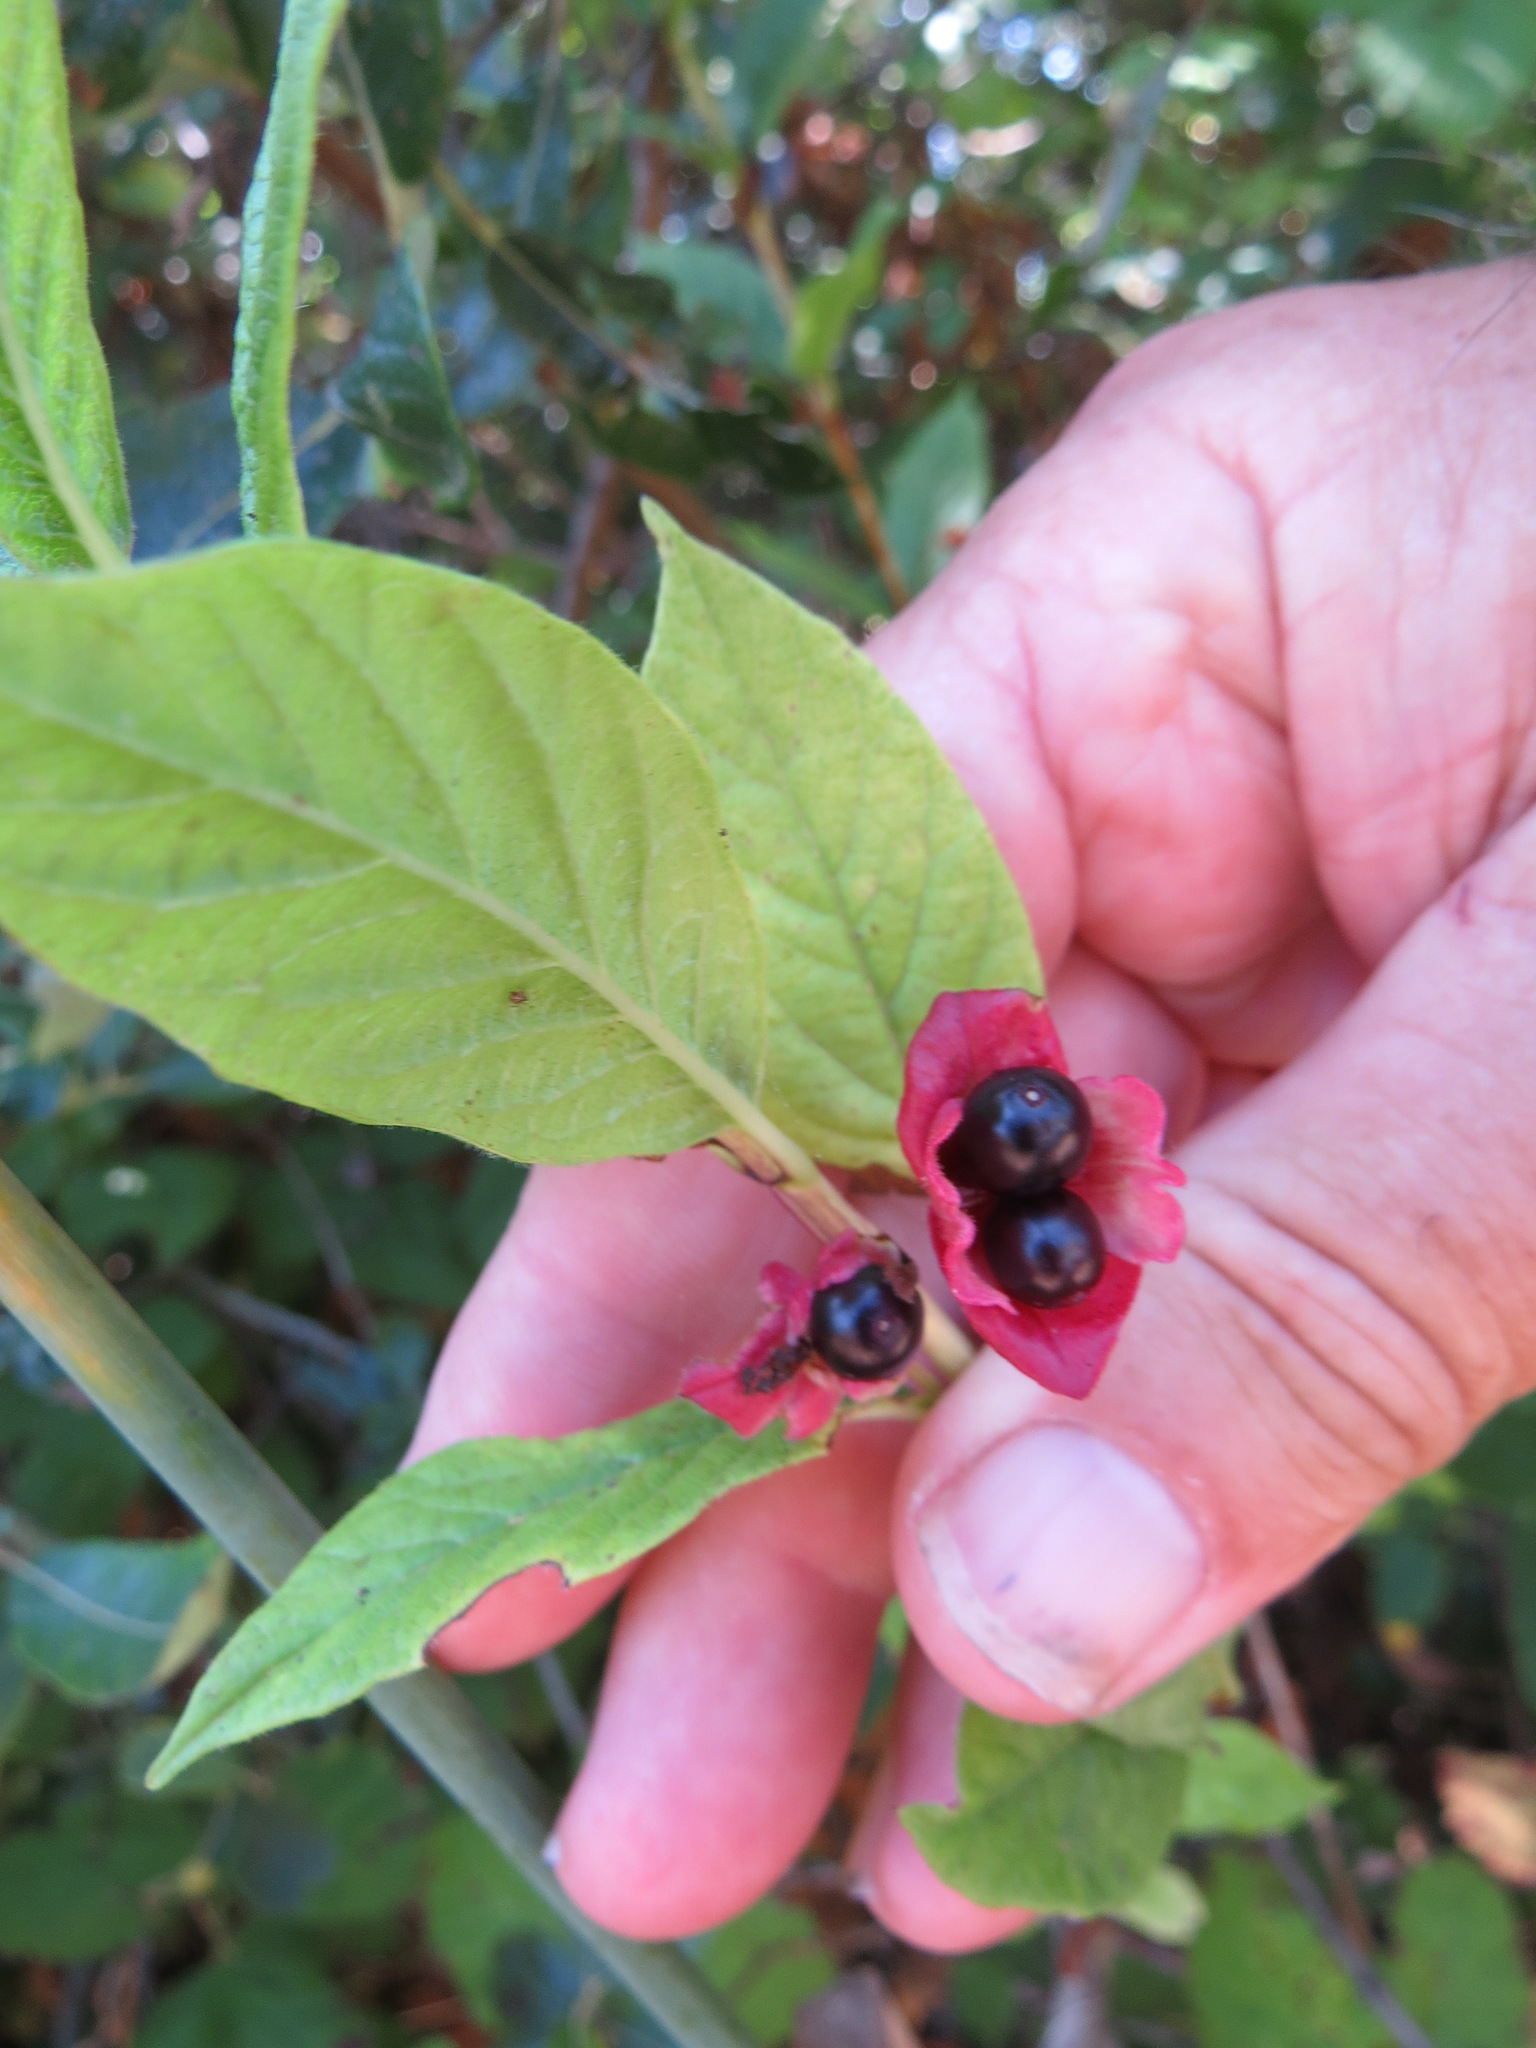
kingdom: Plantae
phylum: Tracheophyta
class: Magnoliopsida
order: Dipsacales
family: Caprifoliaceae
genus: Lonicera
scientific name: Lonicera involucrata
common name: Californian honeysuckle
